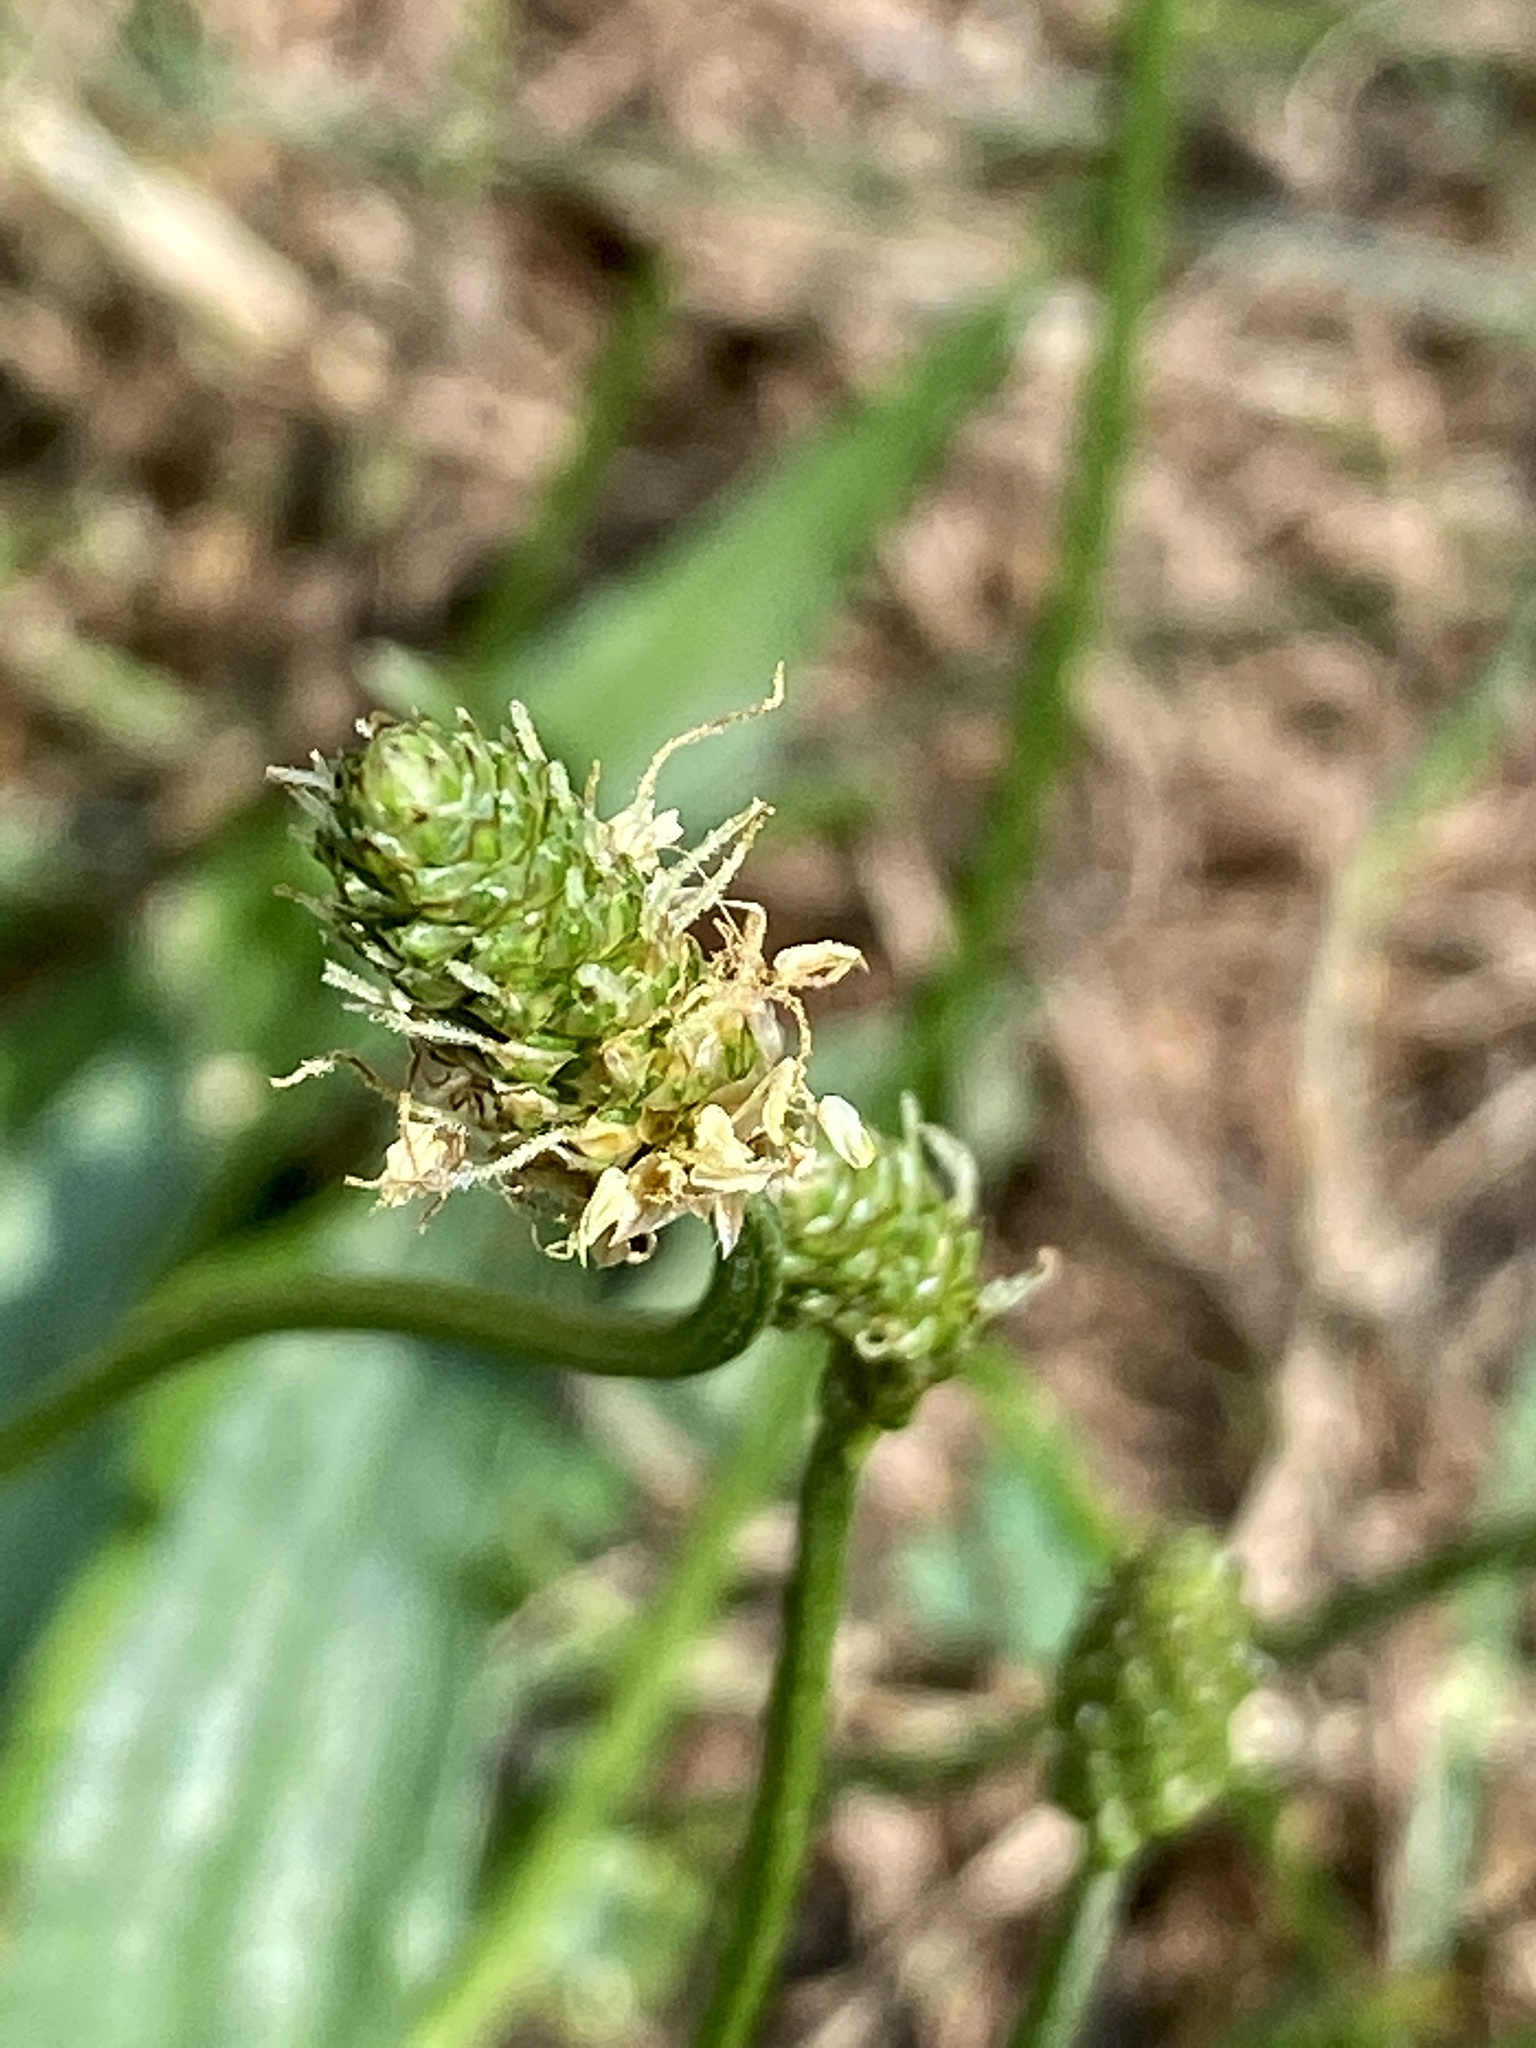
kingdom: Plantae
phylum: Tracheophyta
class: Magnoliopsida
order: Lamiales
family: Plantaginaceae
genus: Plantago
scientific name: Plantago lanceolata
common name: Ribwort plantain
